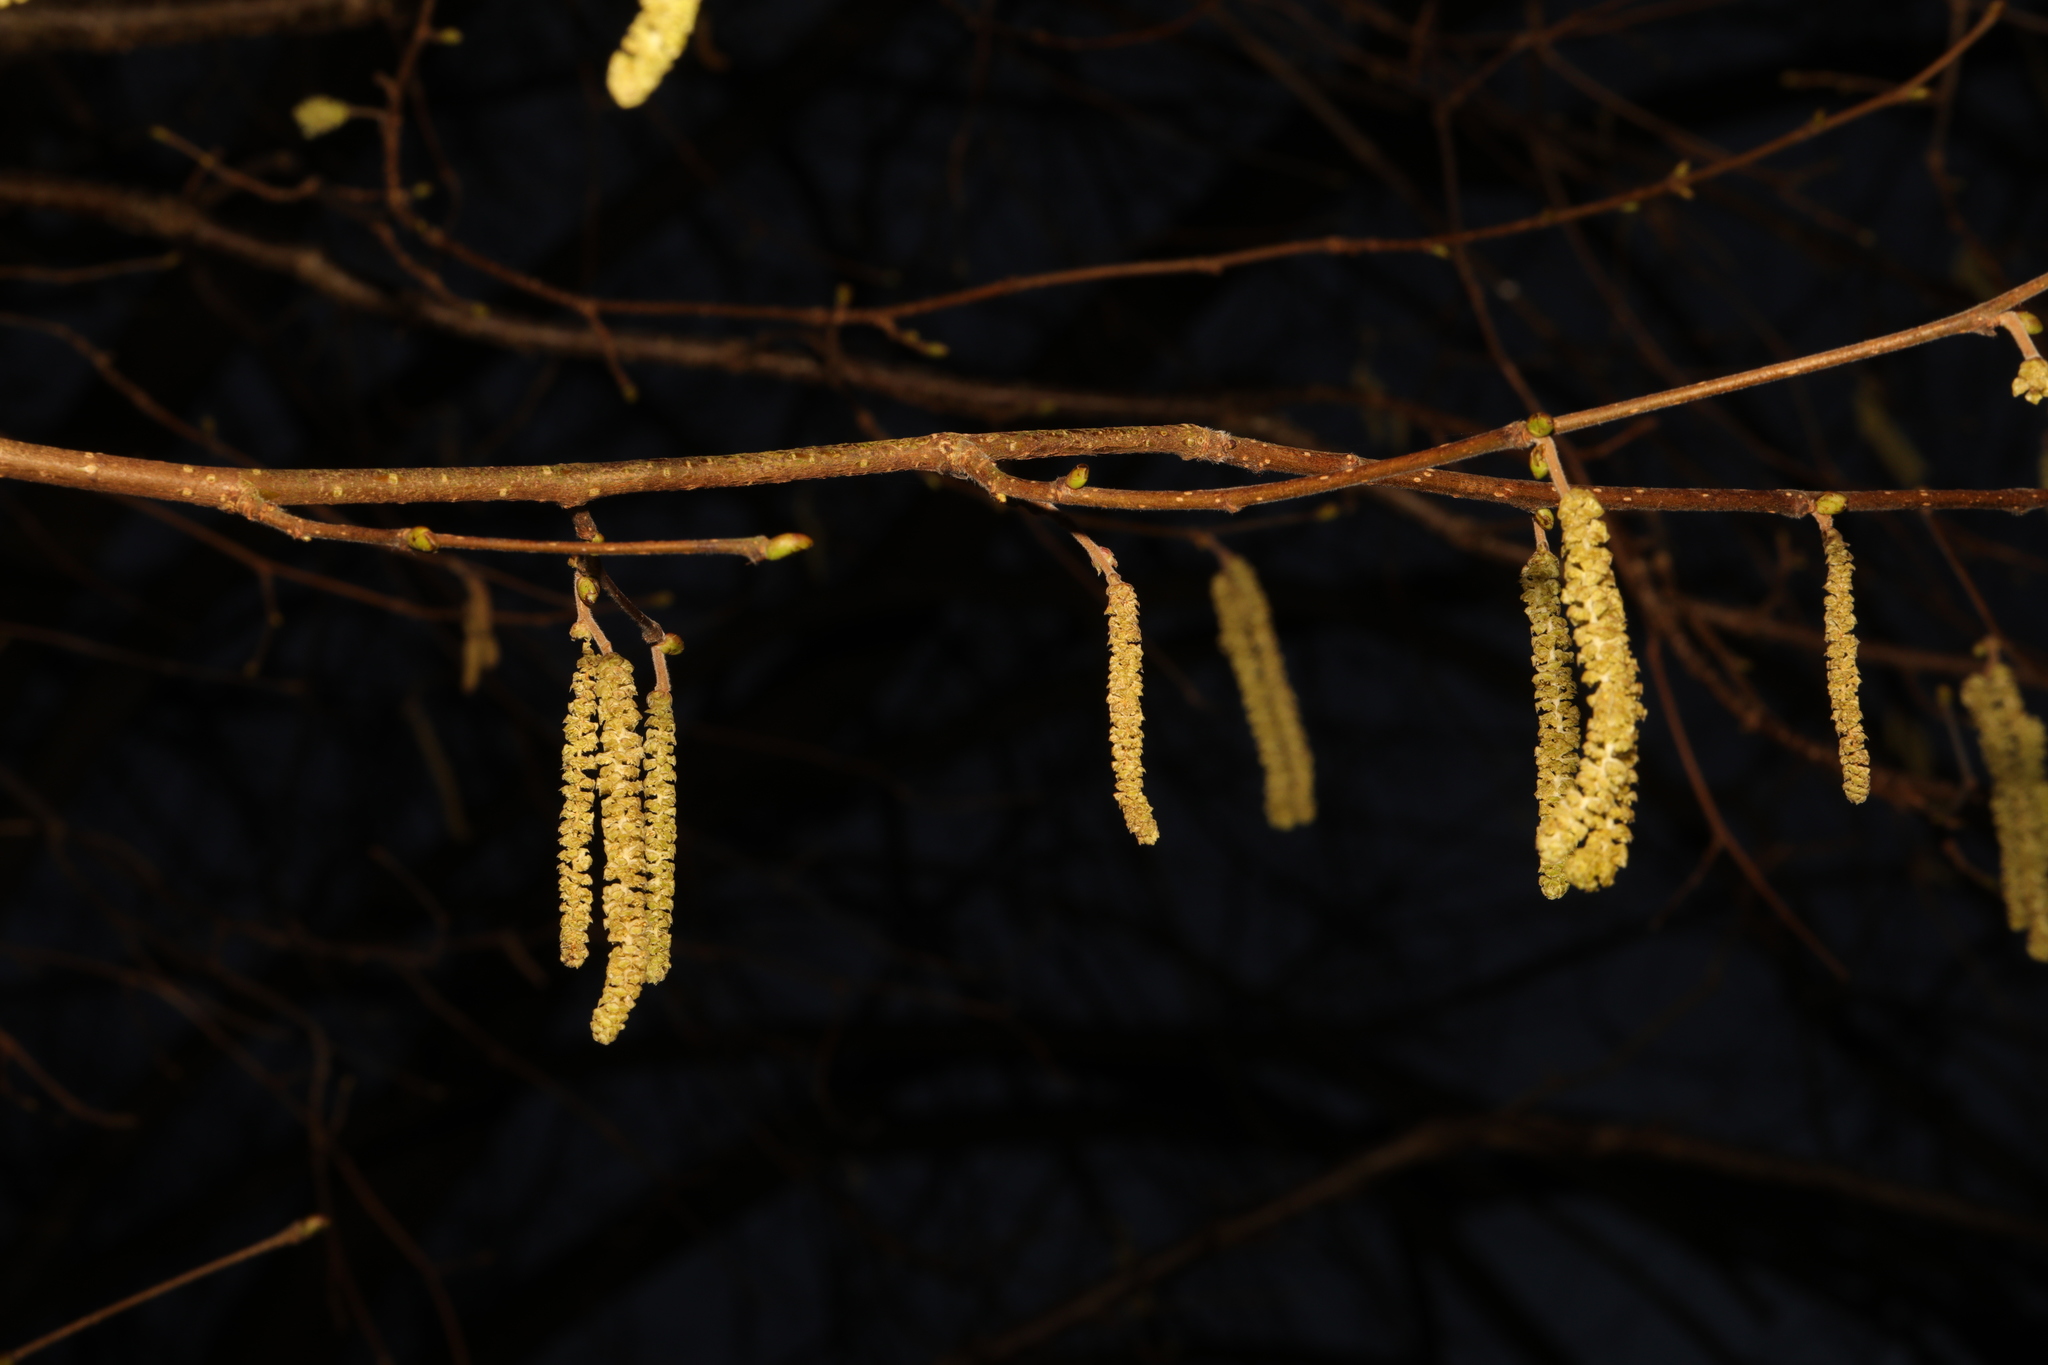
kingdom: Plantae
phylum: Tracheophyta
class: Magnoliopsida
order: Fagales
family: Betulaceae
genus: Corylus
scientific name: Corylus avellana
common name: European hazel
